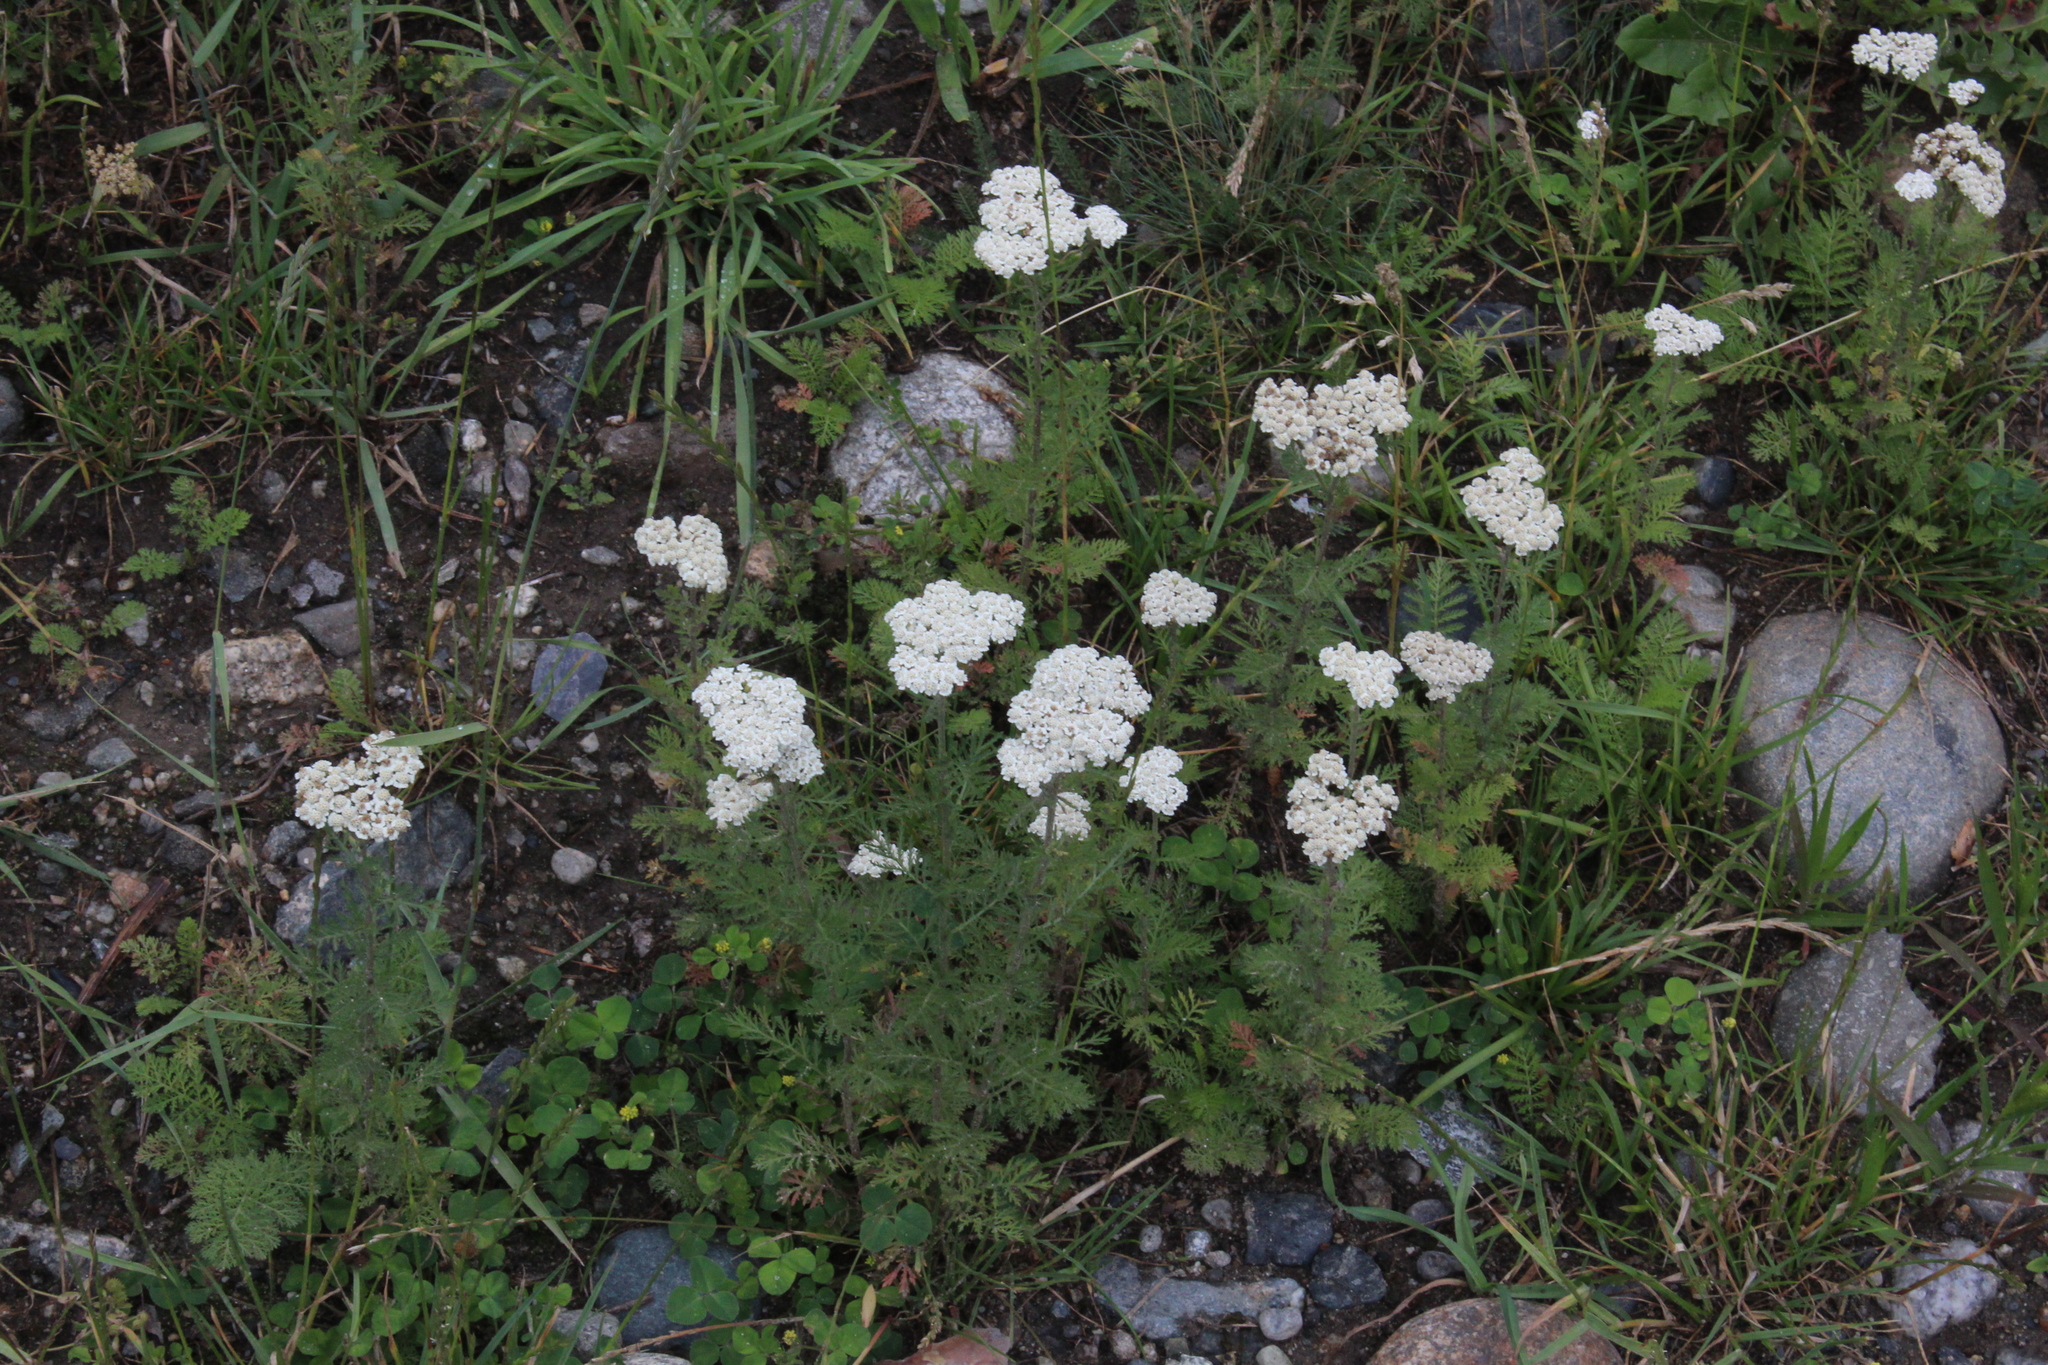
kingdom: Plantae
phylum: Tracheophyta
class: Magnoliopsida
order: Asterales
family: Asteraceae
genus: Achillea
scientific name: Achillea nobilis
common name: Noble yarrow
